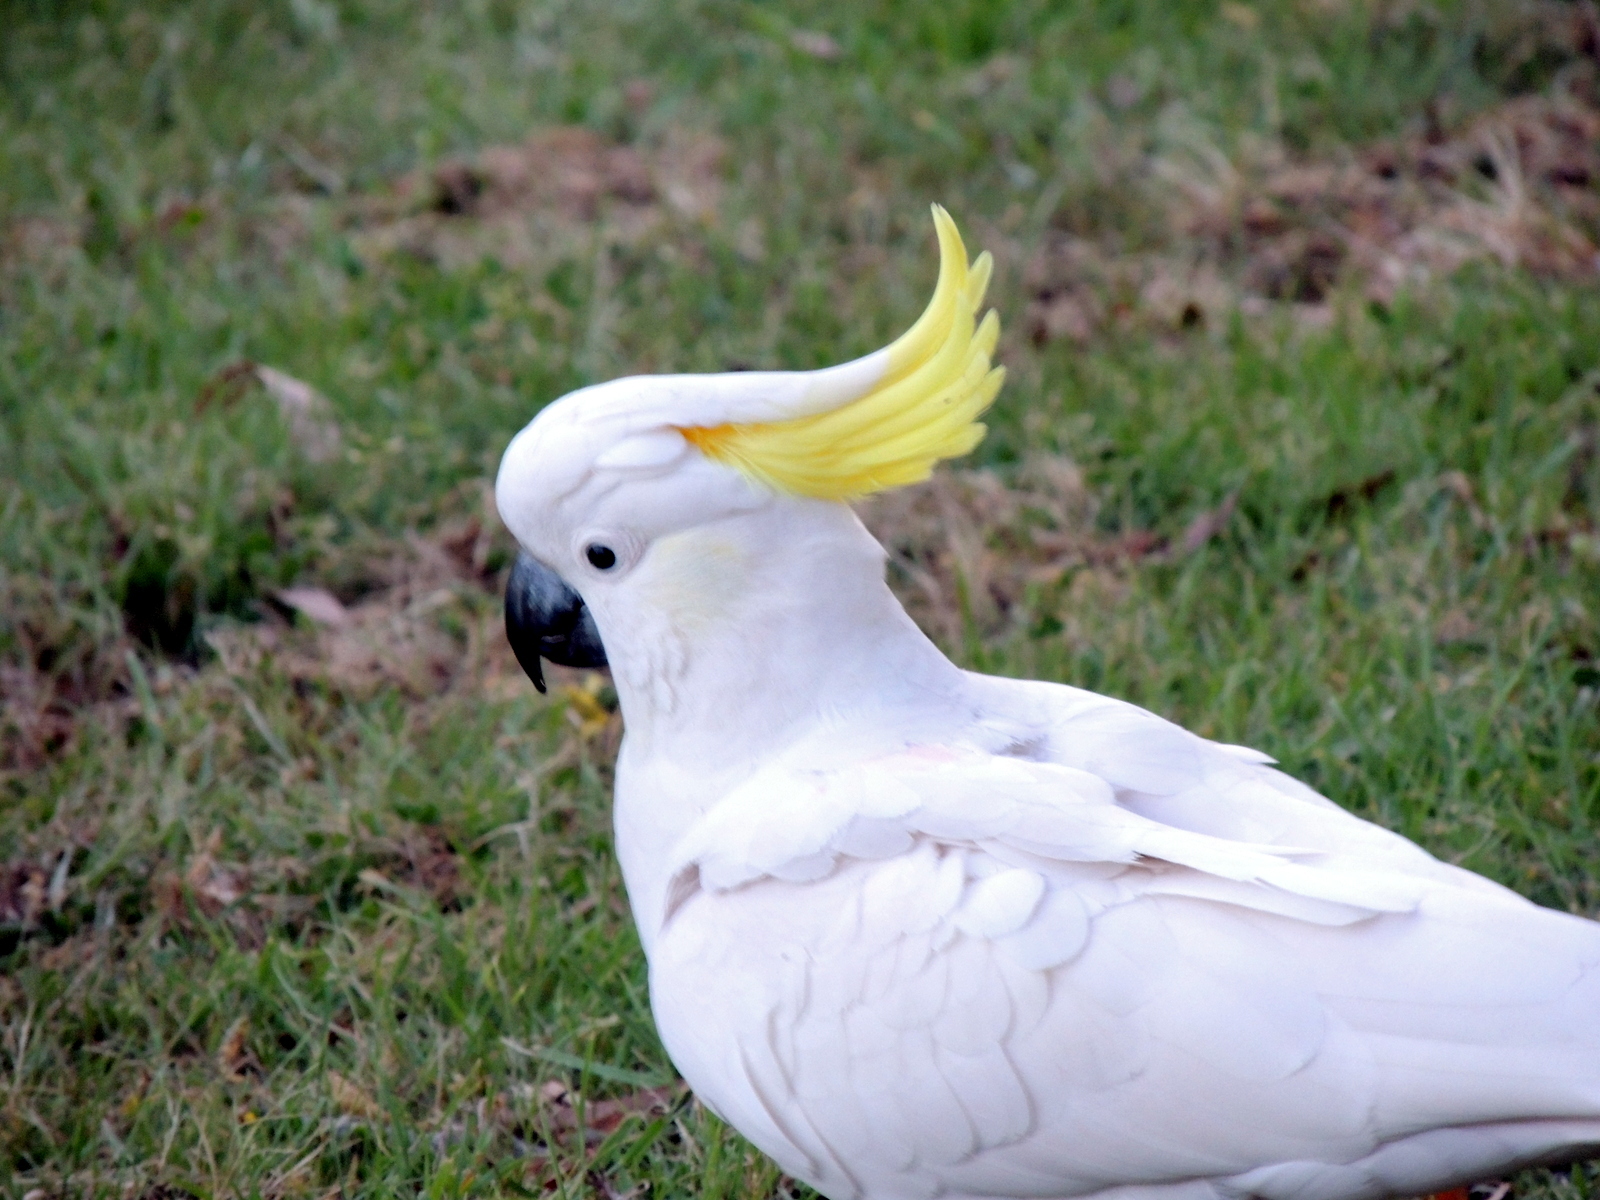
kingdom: Animalia
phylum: Chordata
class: Aves
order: Psittaciformes
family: Psittacidae
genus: Cacatua
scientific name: Cacatua galerita
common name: Sulphur-crested cockatoo
